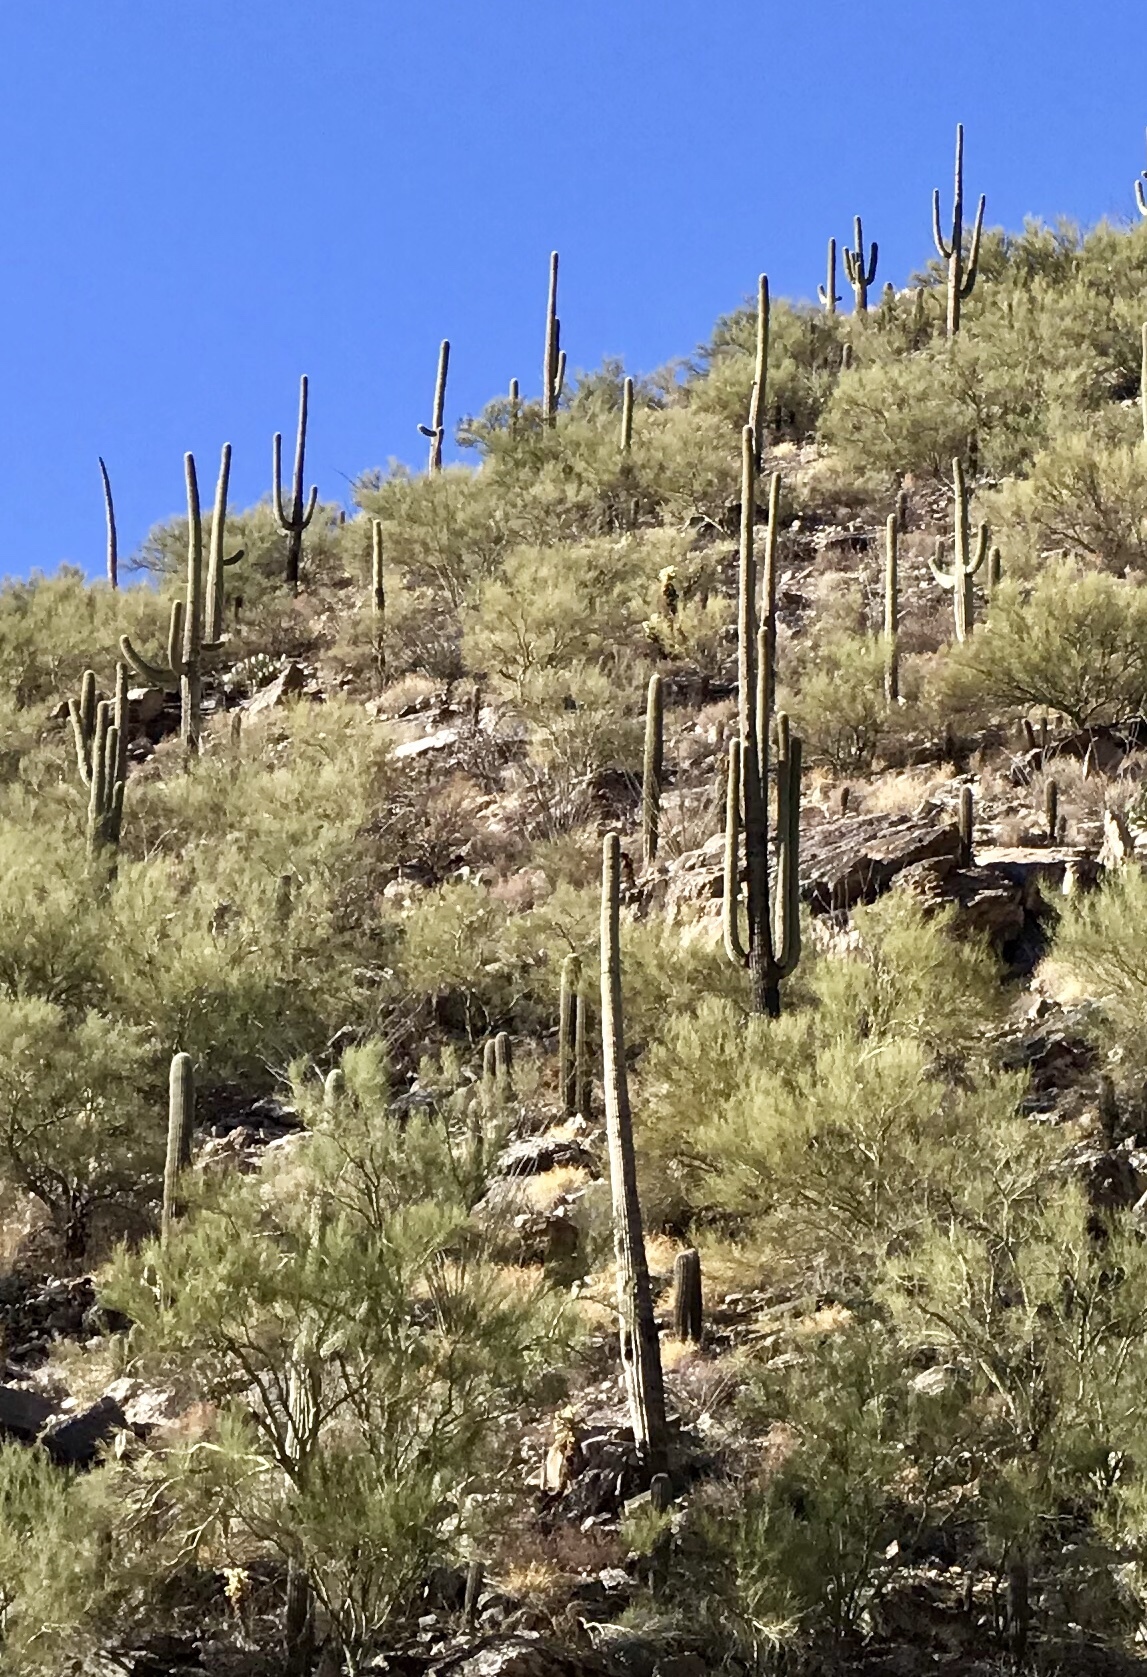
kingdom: Plantae
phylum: Tracheophyta
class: Magnoliopsida
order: Caryophyllales
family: Cactaceae
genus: Carnegiea
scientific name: Carnegiea gigantea
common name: Saguaro
